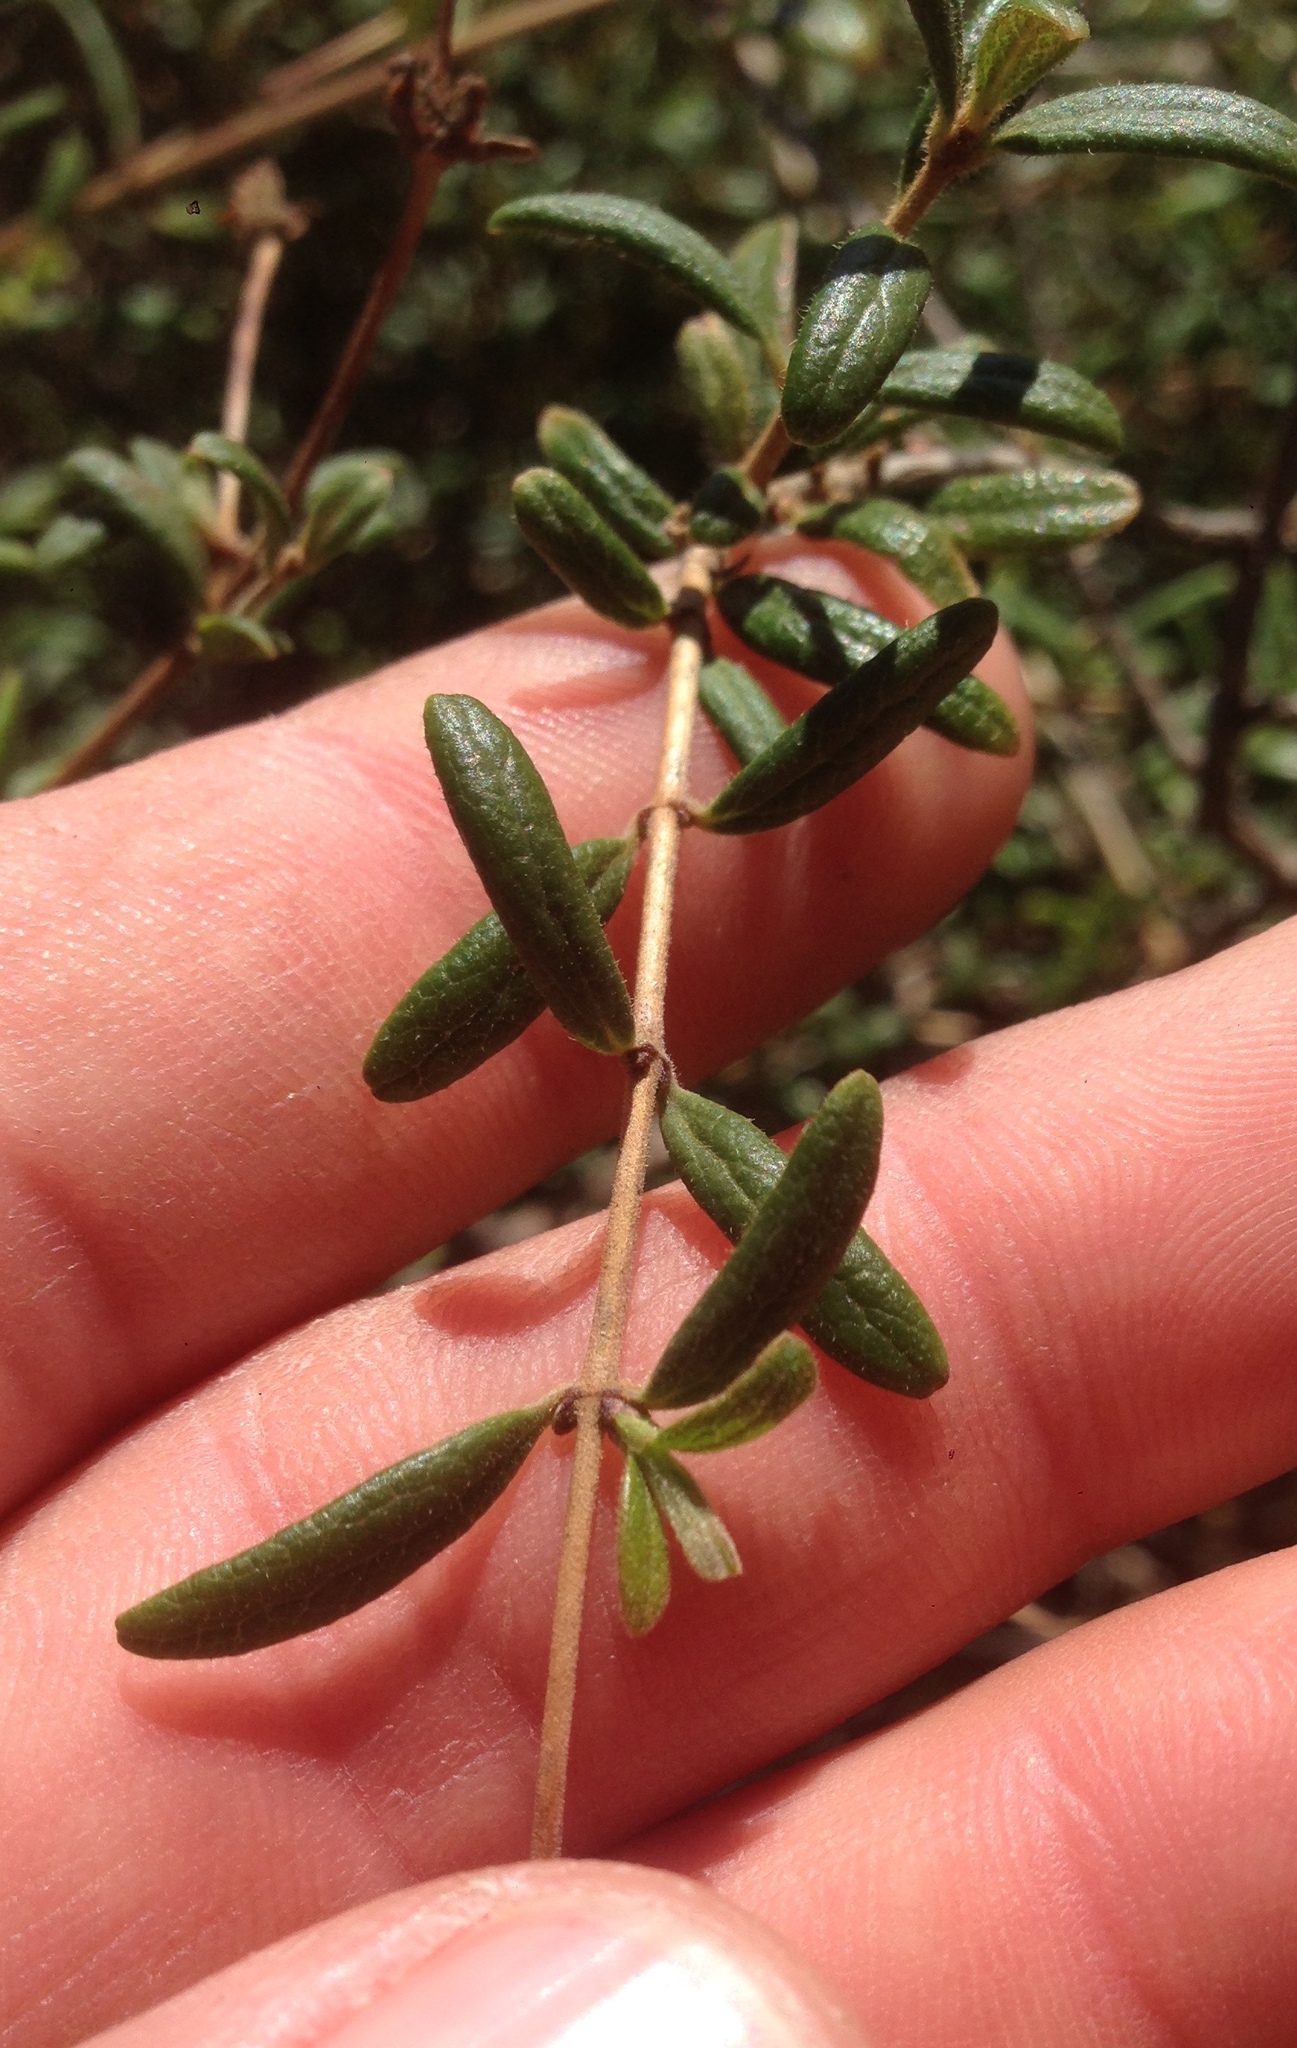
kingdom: Plantae
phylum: Tracheophyta
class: Magnoliopsida
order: Dipsacales
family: Caprifoliaceae
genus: Lonicera
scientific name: Lonicera subspicata
